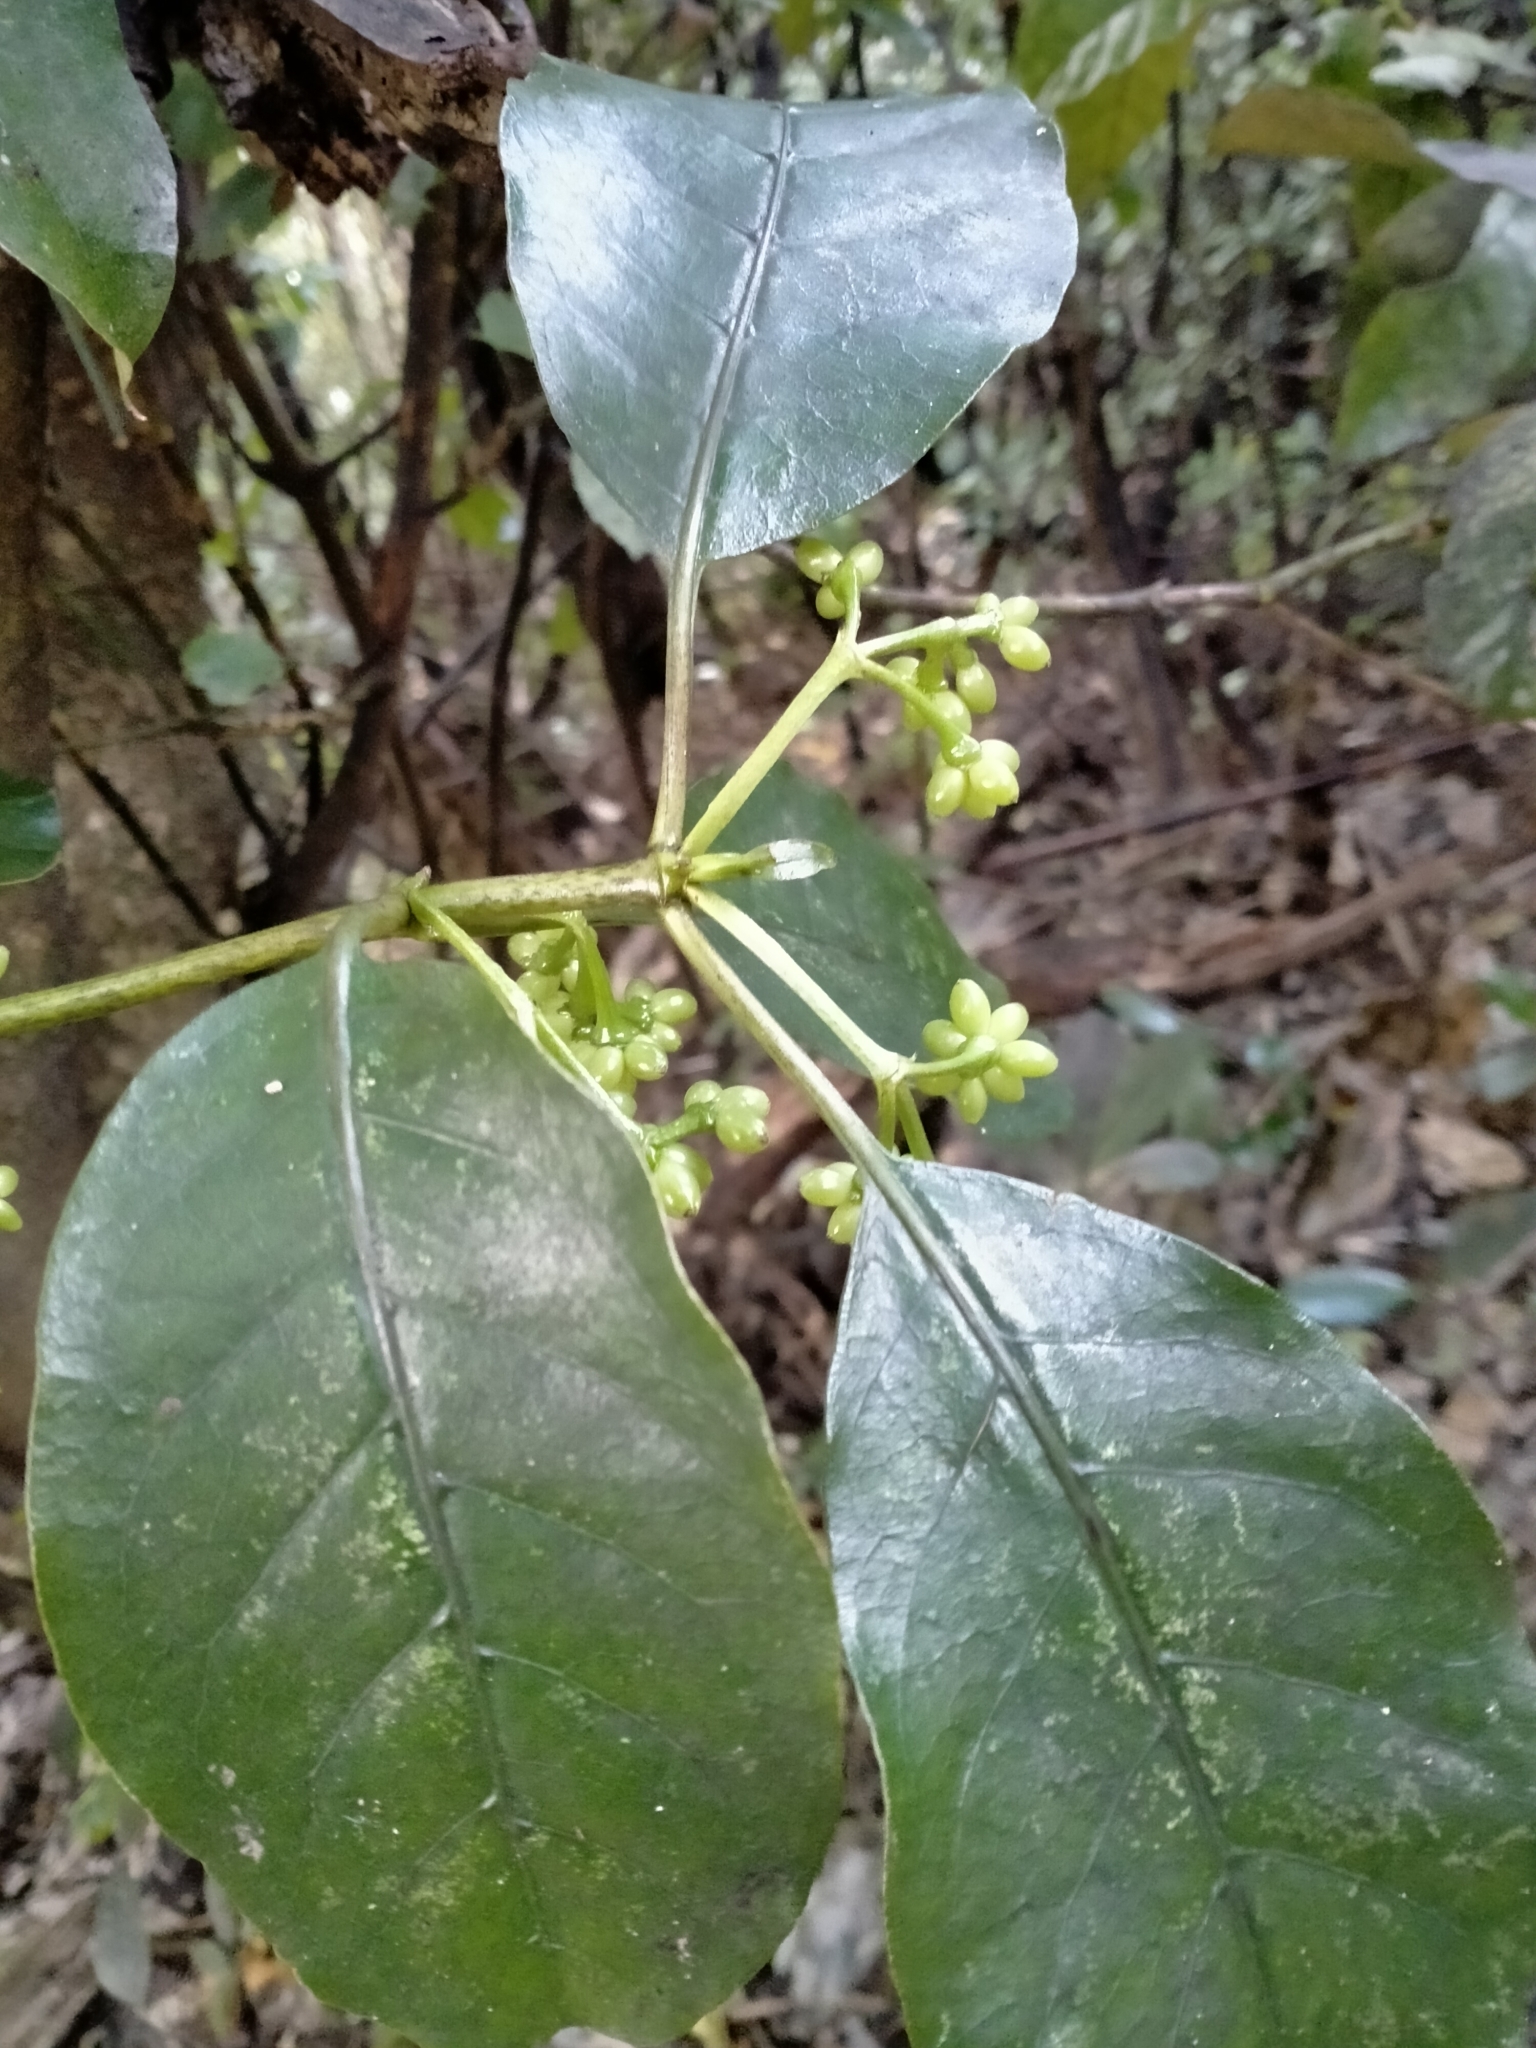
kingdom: Plantae
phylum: Tracheophyta
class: Magnoliopsida
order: Gentianales
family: Rubiaceae
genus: Coprosma
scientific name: Coprosma autumnalis
